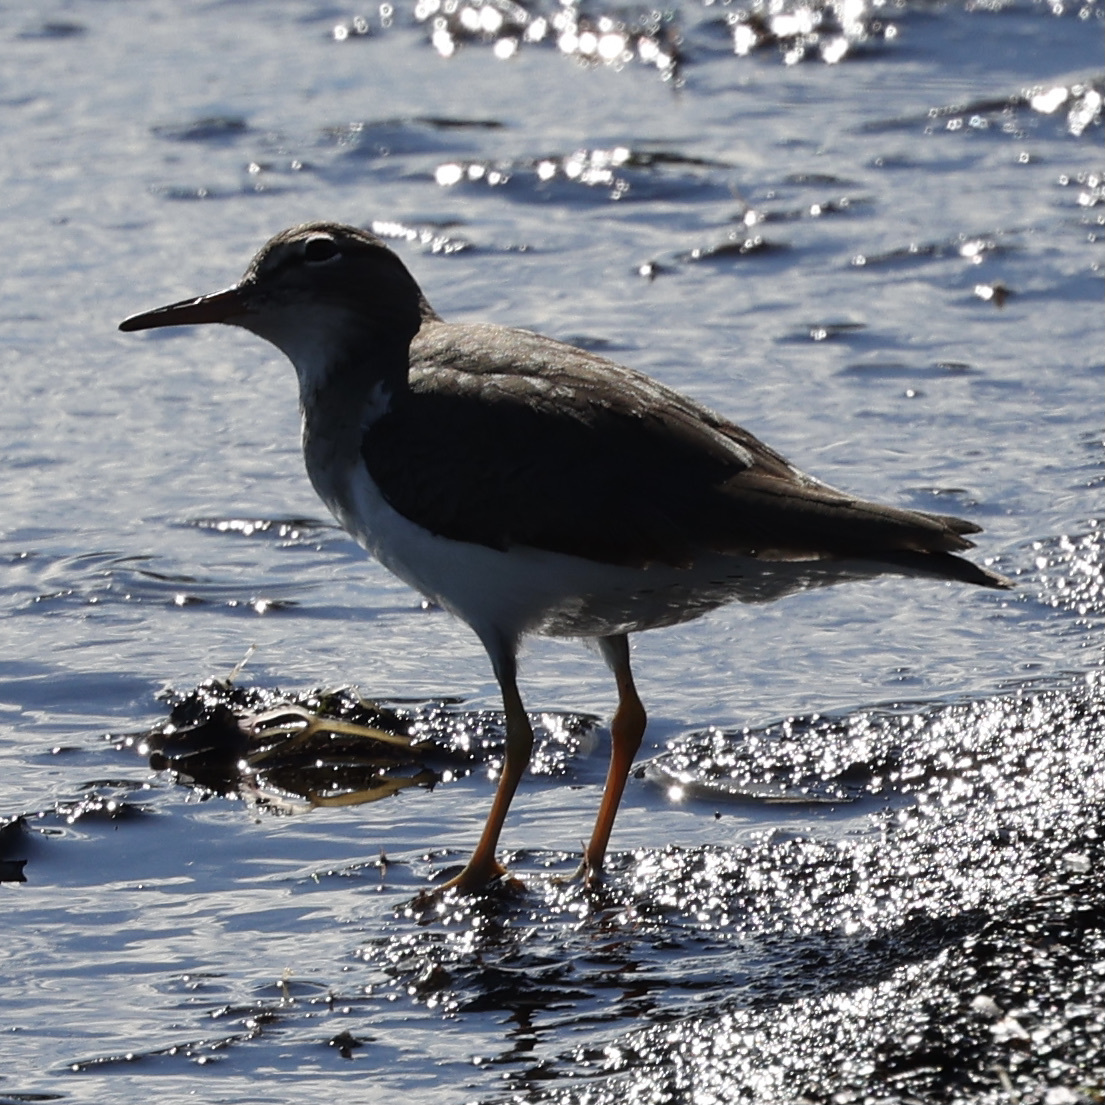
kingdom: Animalia
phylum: Chordata
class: Aves
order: Charadriiformes
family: Scolopacidae
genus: Actitis
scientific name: Actitis macularius
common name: Spotted sandpiper
